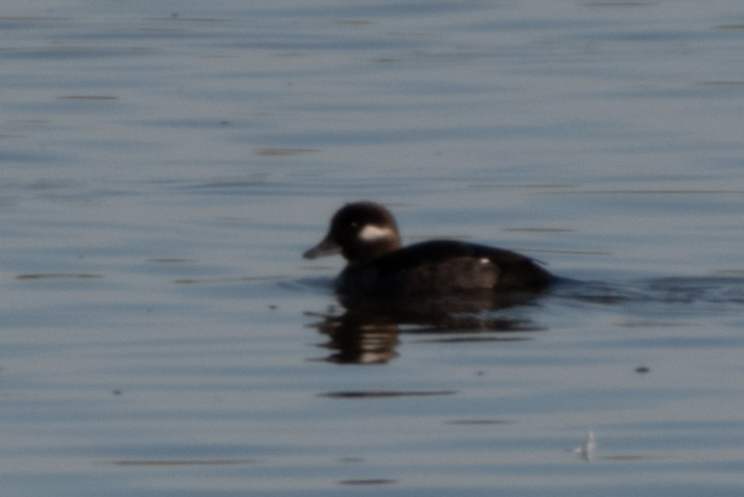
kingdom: Animalia
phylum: Chordata
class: Aves
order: Anseriformes
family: Anatidae
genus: Bucephala
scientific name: Bucephala albeola
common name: Bufflehead
